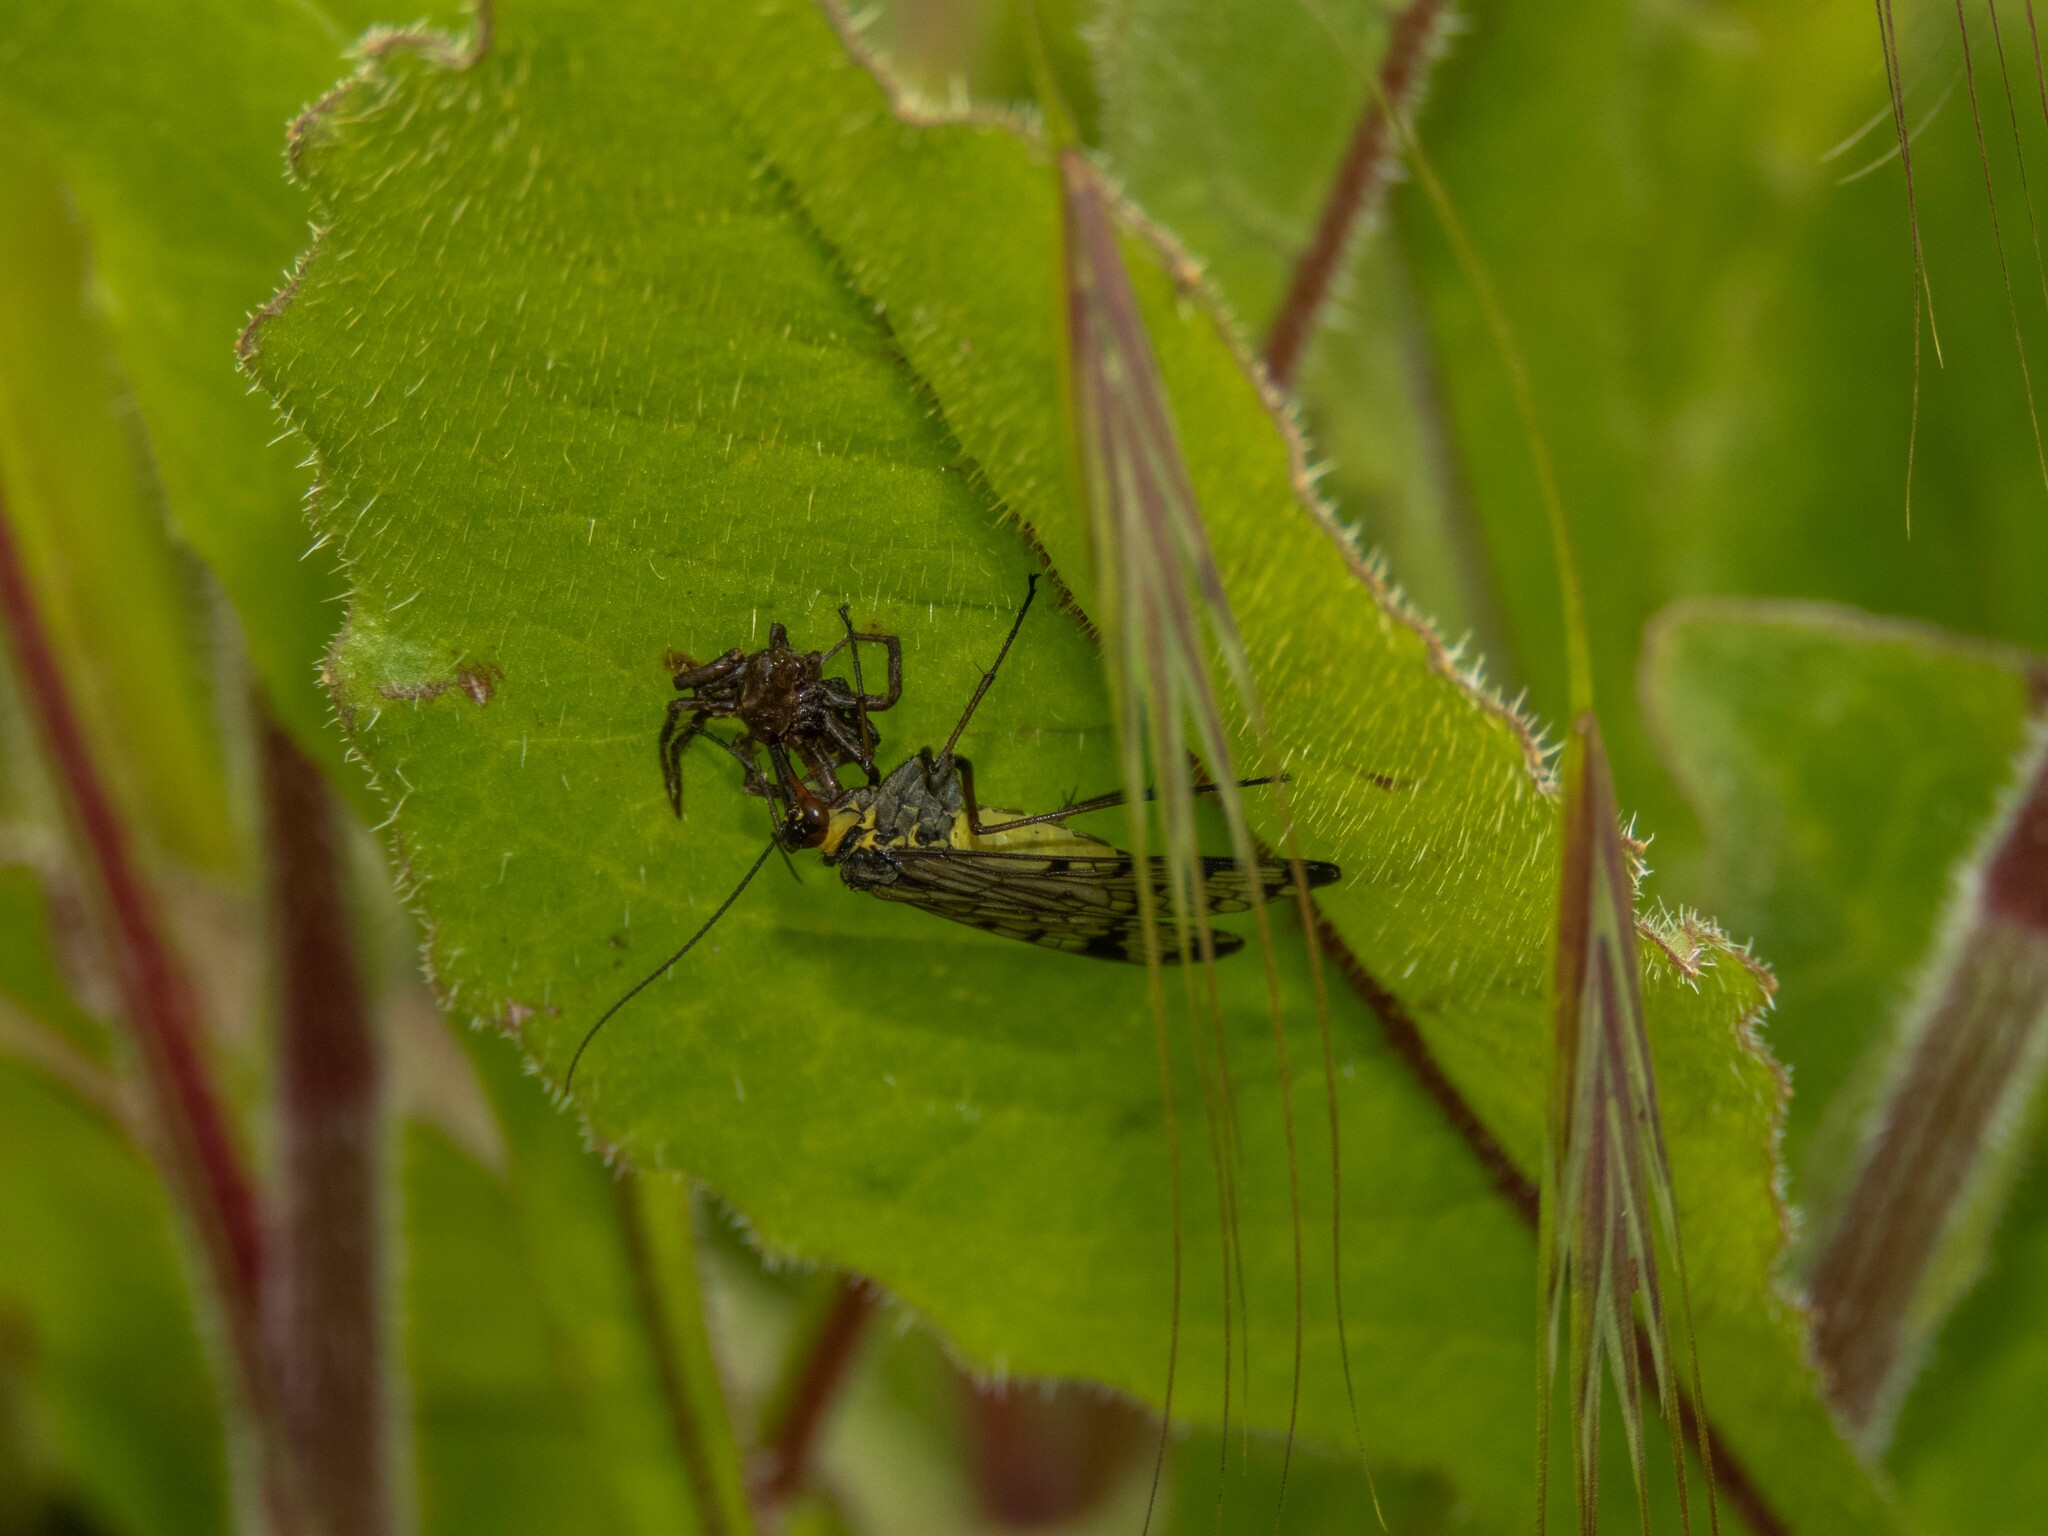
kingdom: Animalia
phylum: Arthropoda
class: Insecta
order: Mecoptera
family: Panorpidae
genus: Panorpa
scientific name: Panorpa meridionalis
